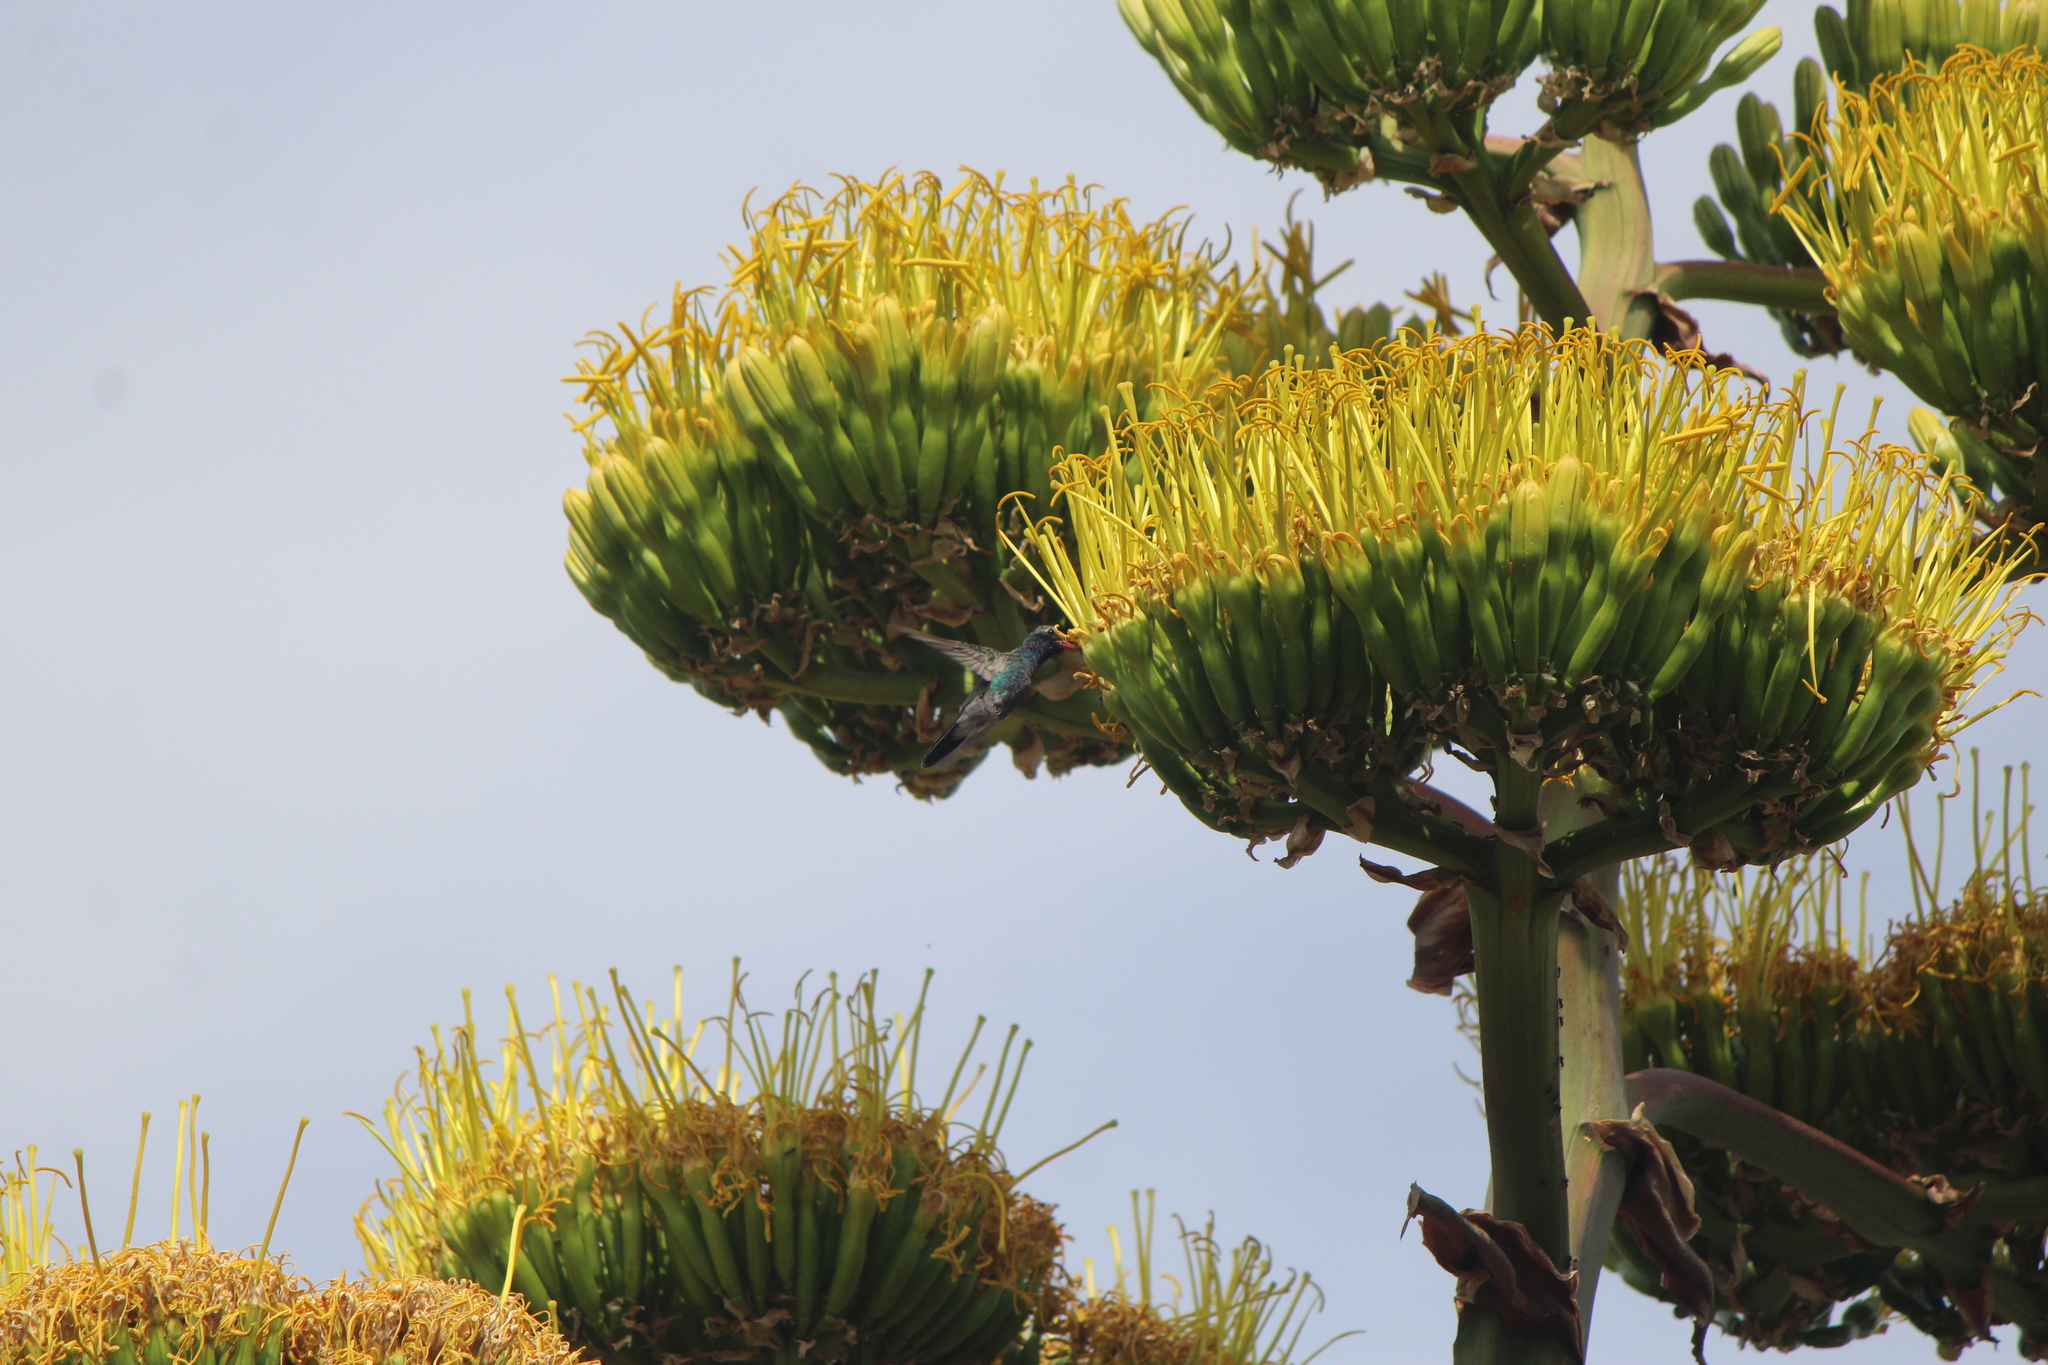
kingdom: Animalia
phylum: Chordata
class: Aves
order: Apodiformes
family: Trochilidae
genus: Cynanthus
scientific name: Cynanthus latirostris
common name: Broad-billed hummingbird
